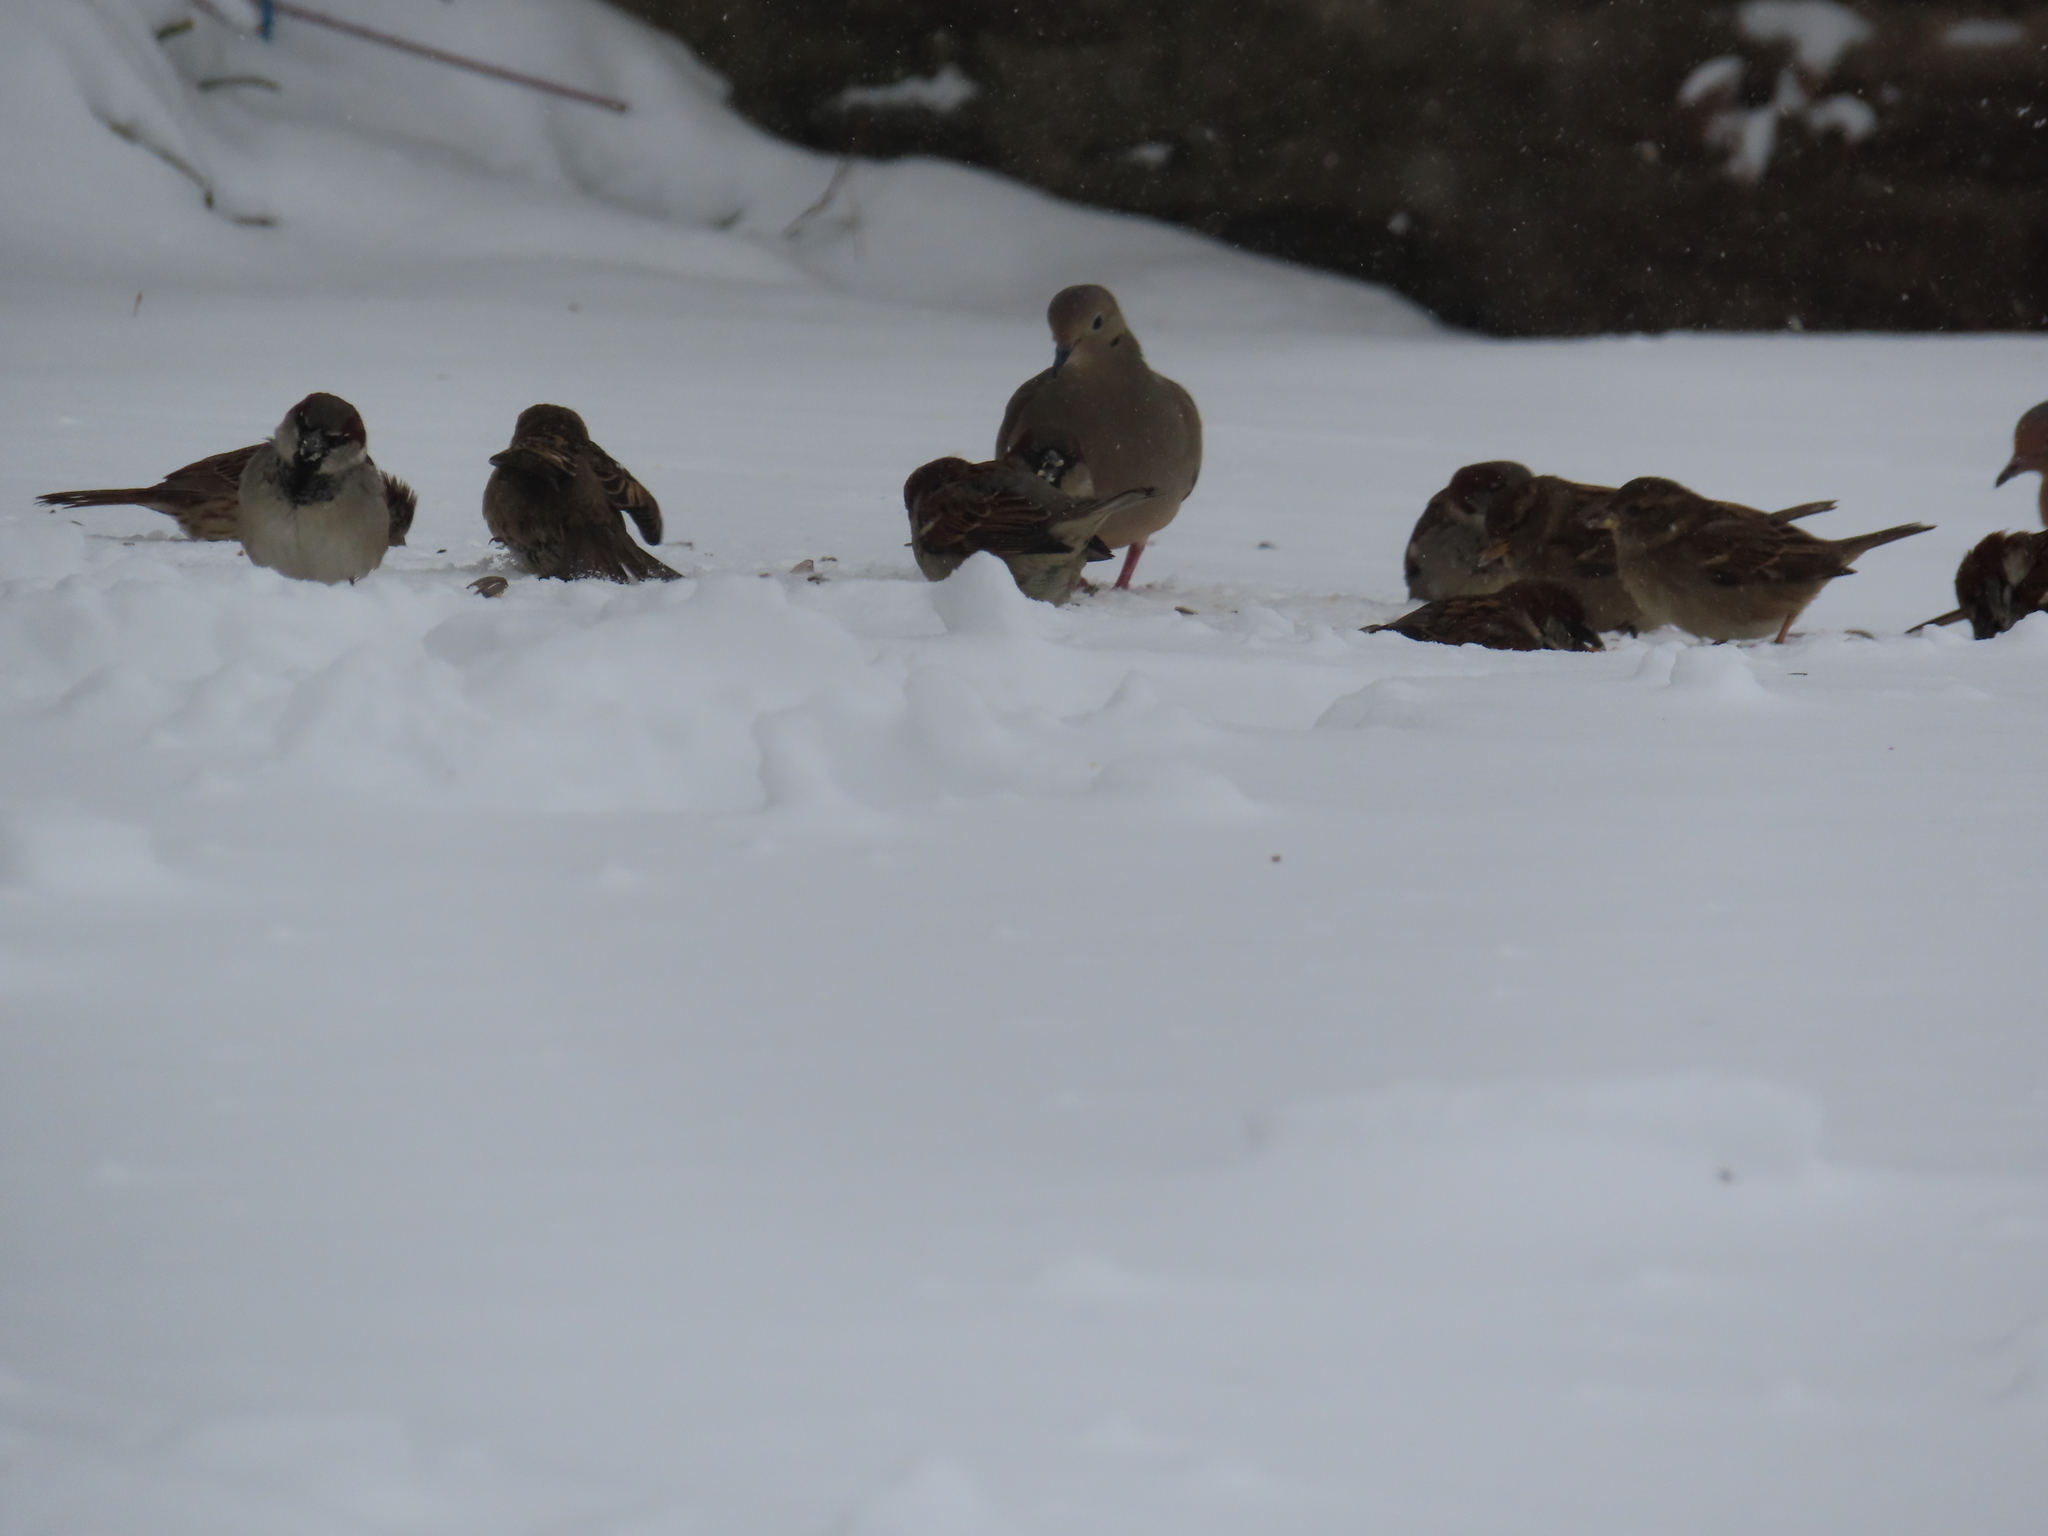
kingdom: Animalia
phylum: Chordata
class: Aves
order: Columbiformes
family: Columbidae
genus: Zenaida
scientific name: Zenaida macroura
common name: Mourning dove
